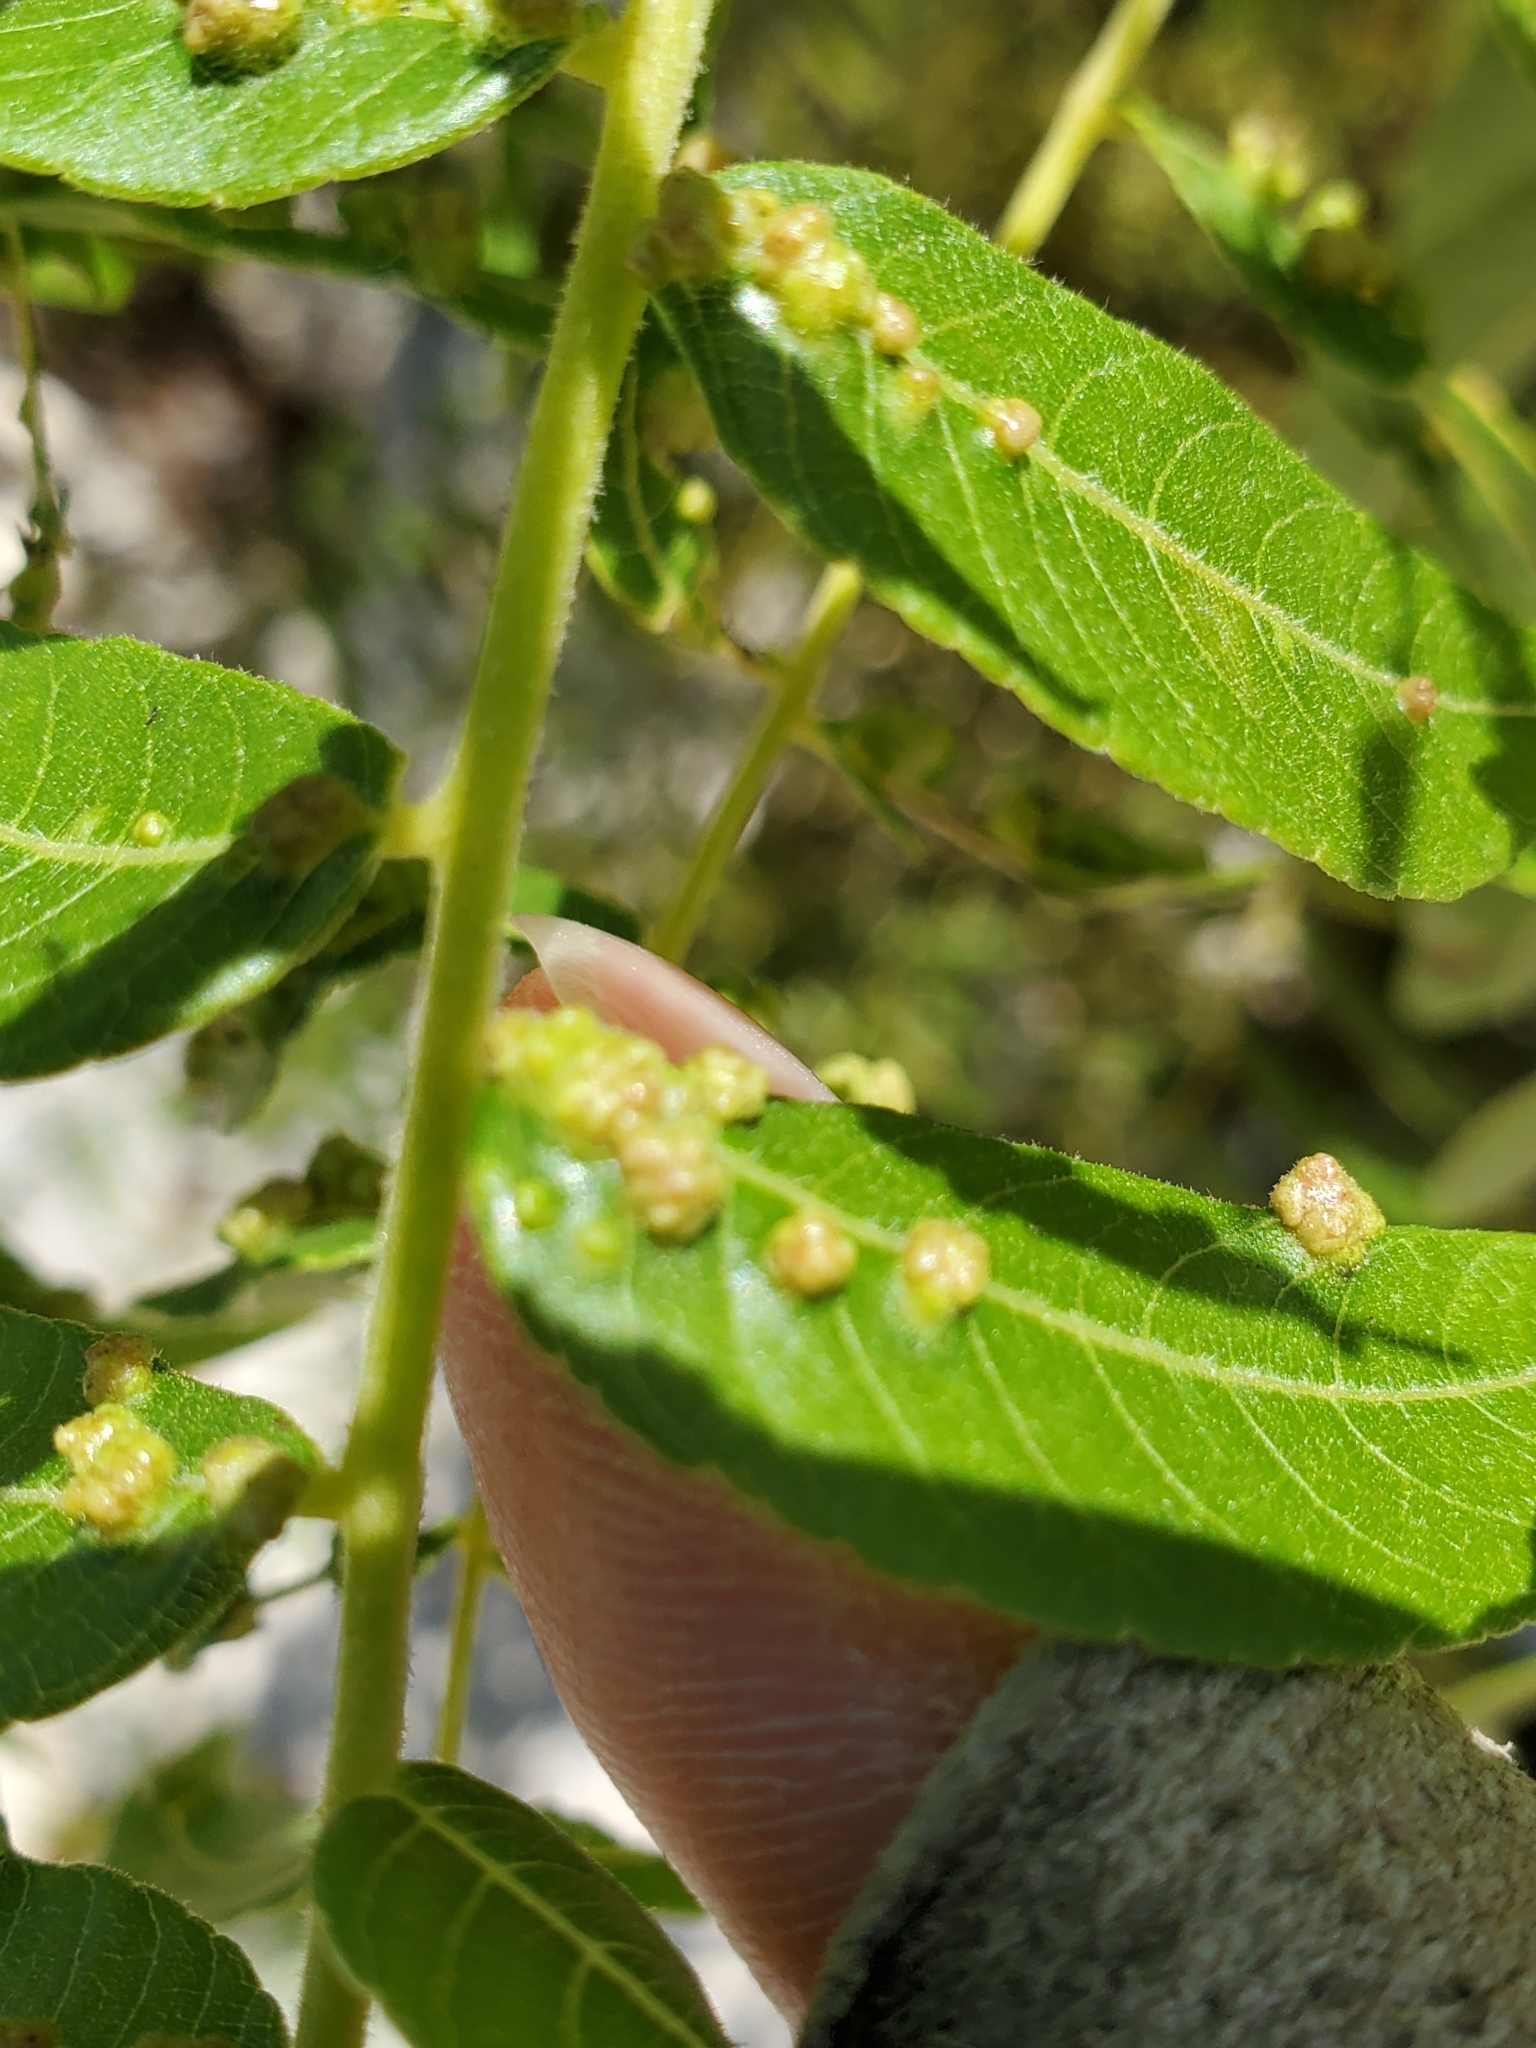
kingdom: Animalia
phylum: Arthropoda
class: Arachnida
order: Trombidiformes
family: Eriophyidae
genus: Aceria
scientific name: Aceria
